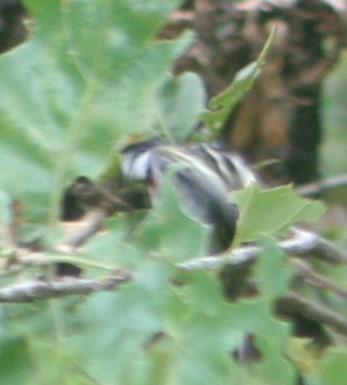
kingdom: Animalia
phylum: Chordata
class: Aves
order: Passeriformes
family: Parulidae
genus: Setophaga
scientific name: Setophaga pensylvanica
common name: Chestnut-sided warbler
